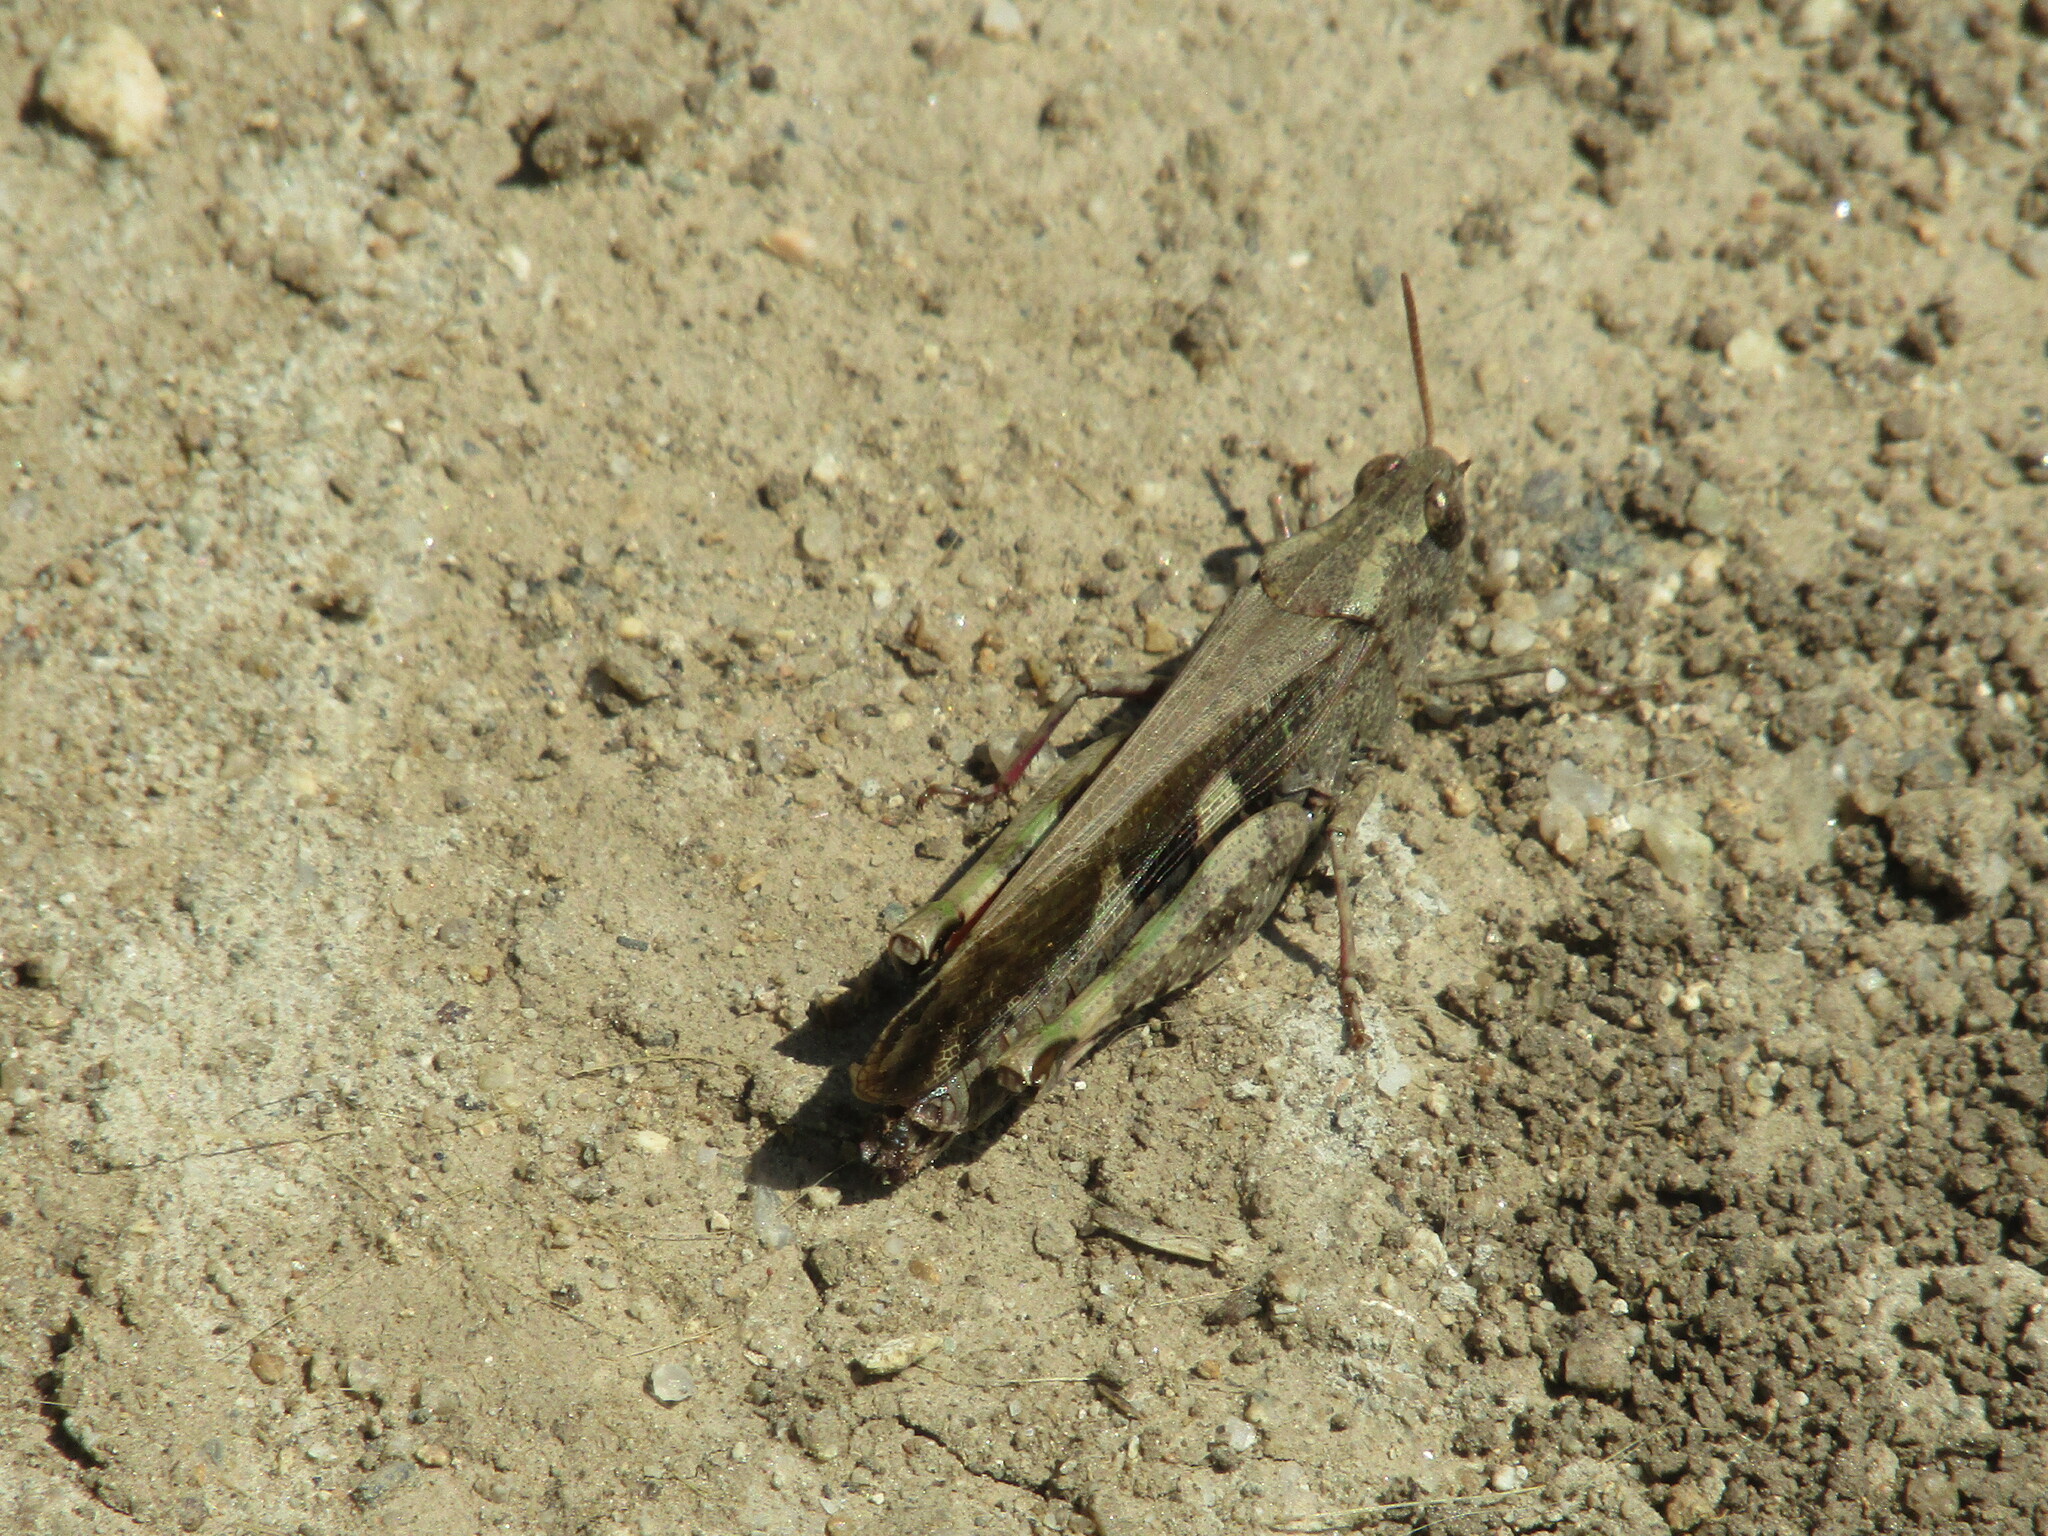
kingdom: Animalia
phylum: Arthropoda
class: Insecta
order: Orthoptera
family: Acrididae
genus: Aiolopus
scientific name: Aiolopus strepens
